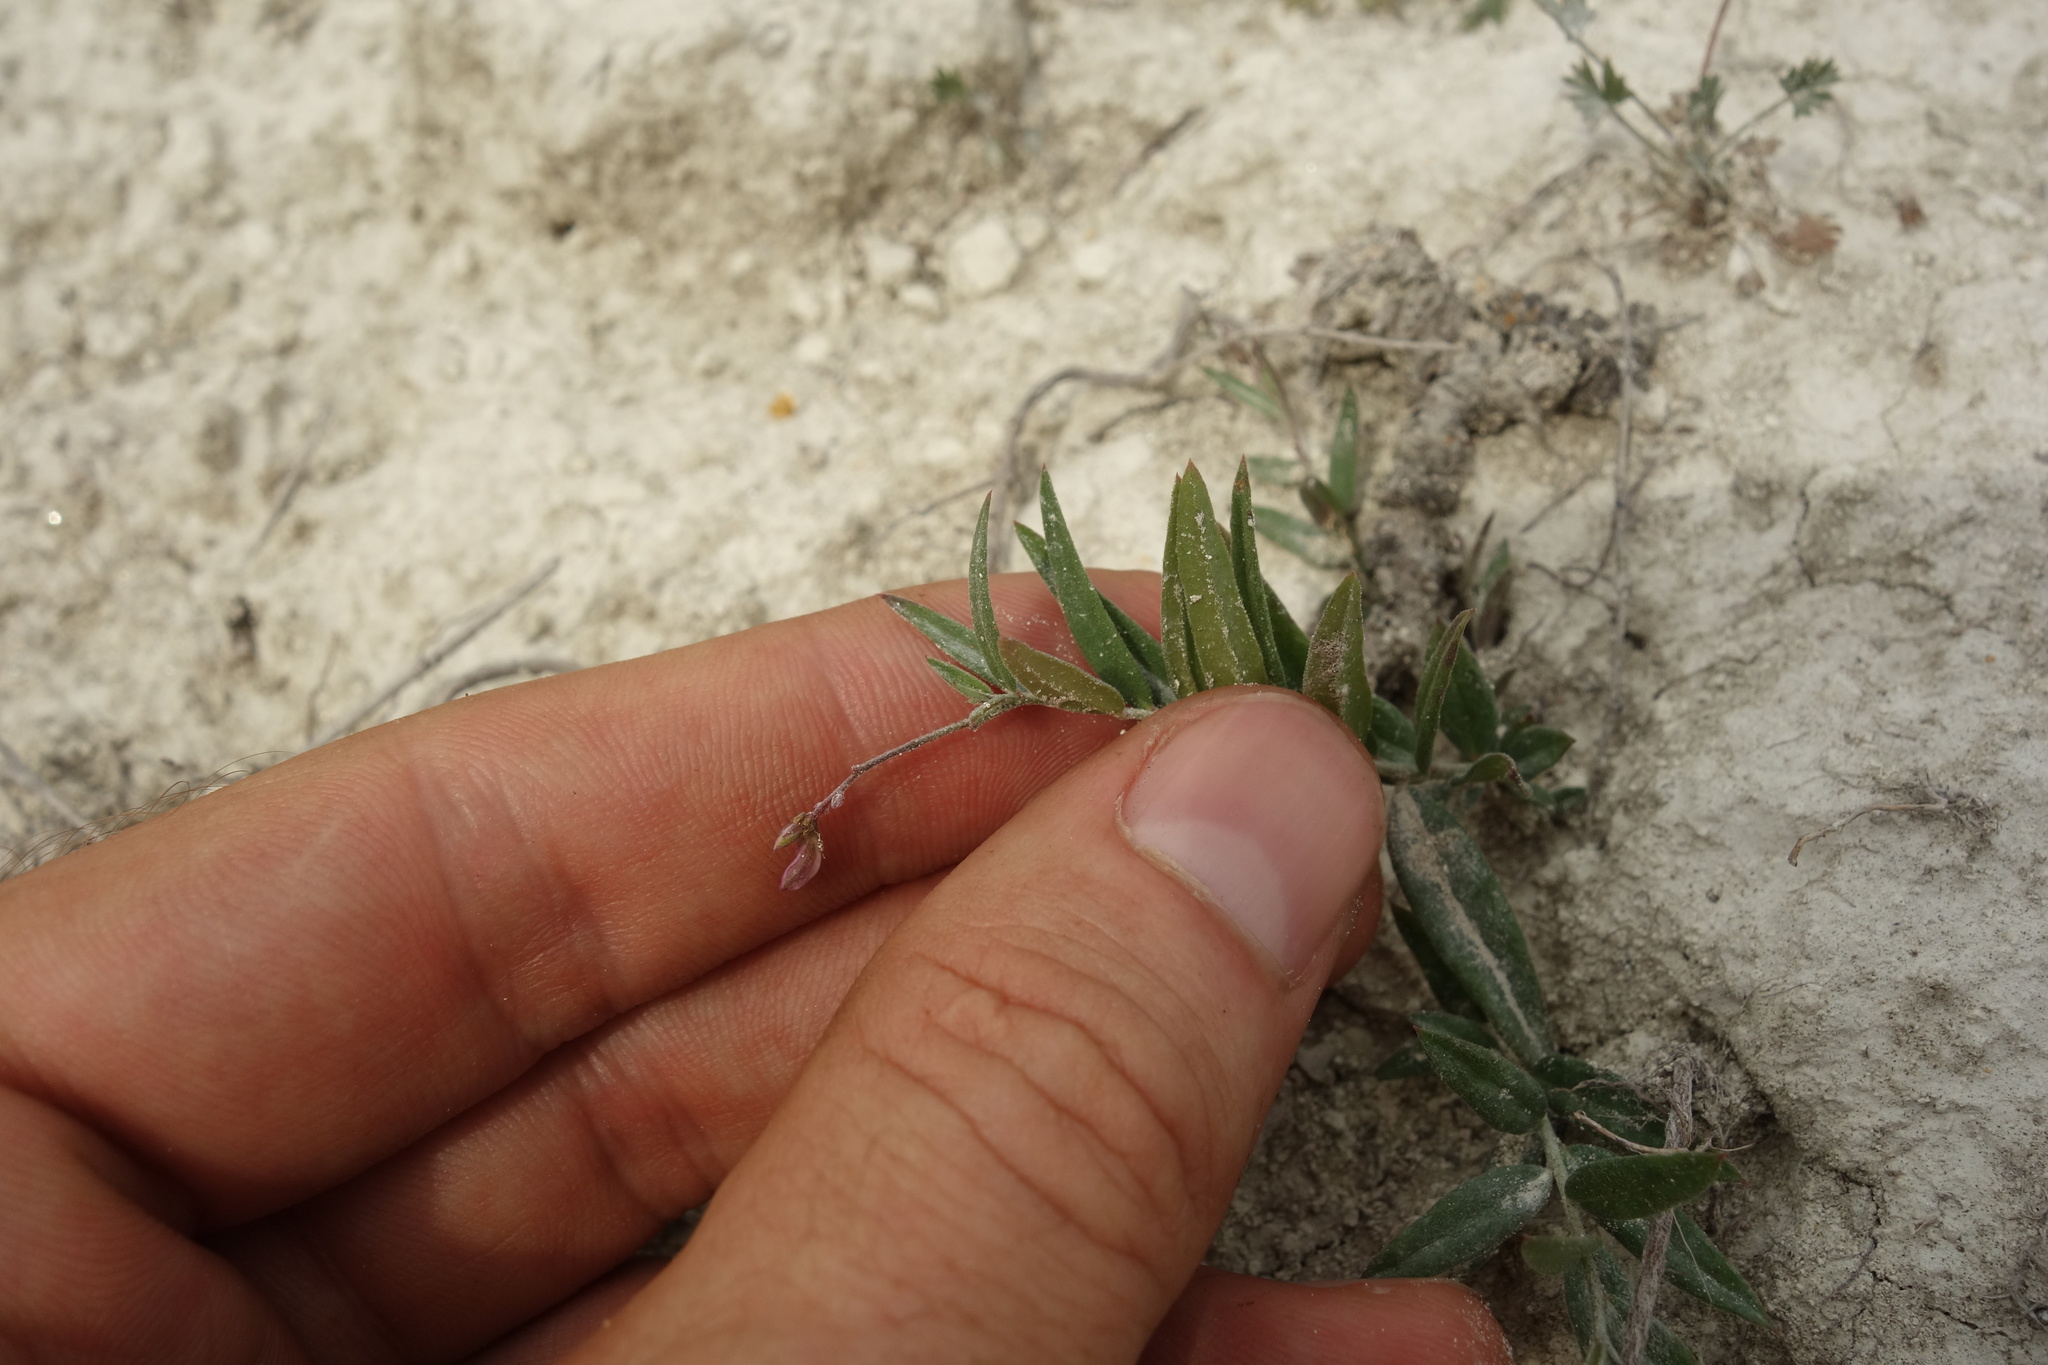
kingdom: Plantae
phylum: Tracheophyta
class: Magnoliopsida
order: Fabales
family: Polygalaceae
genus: Polygala
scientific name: Polygala sibirica
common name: Siberian polygala
